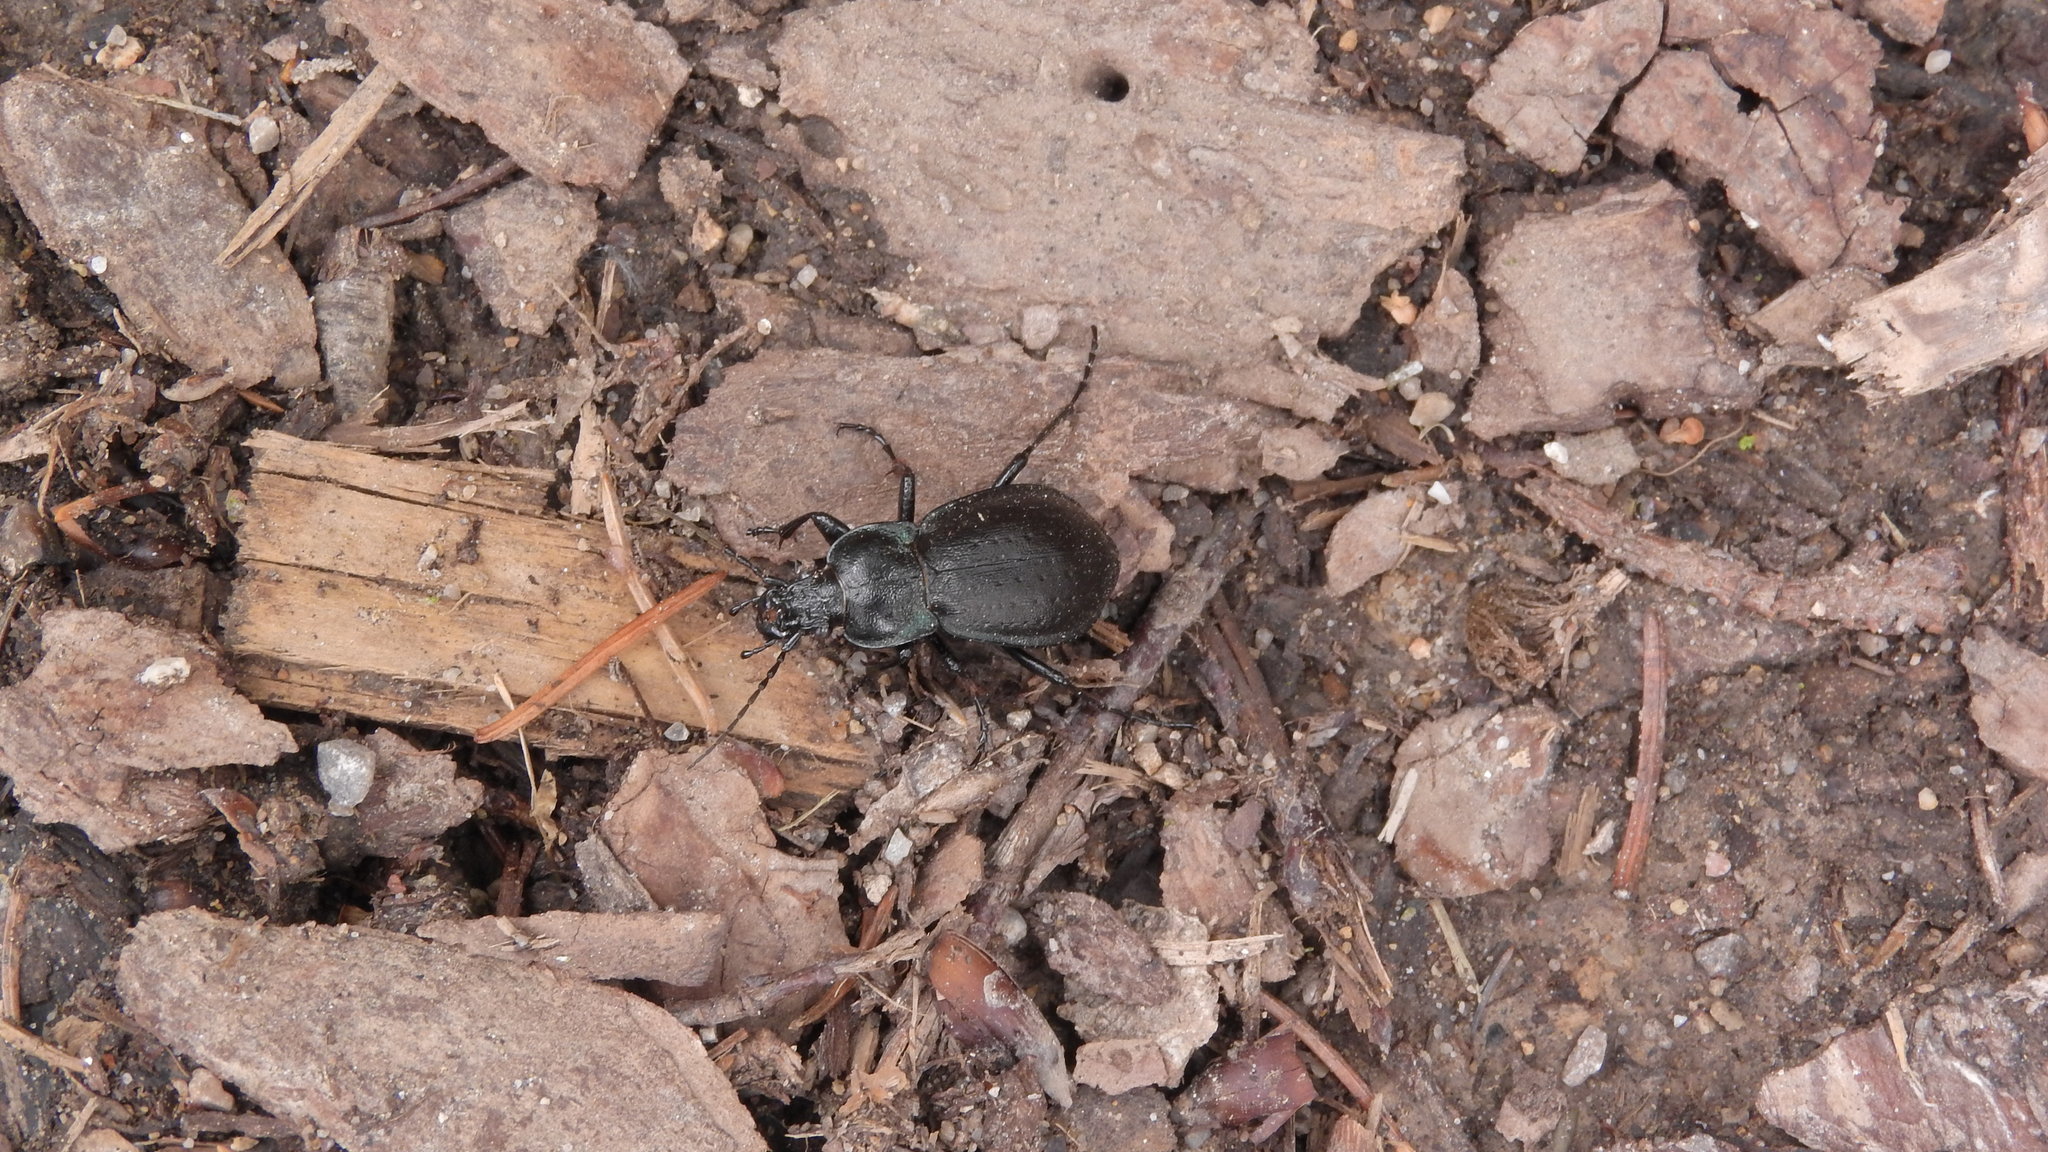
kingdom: Animalia
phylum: Arthropoda
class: Insecta
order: Coleoptera
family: Carabidae
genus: Carabus
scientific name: Carabus nemoralis
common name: European ground beetle
